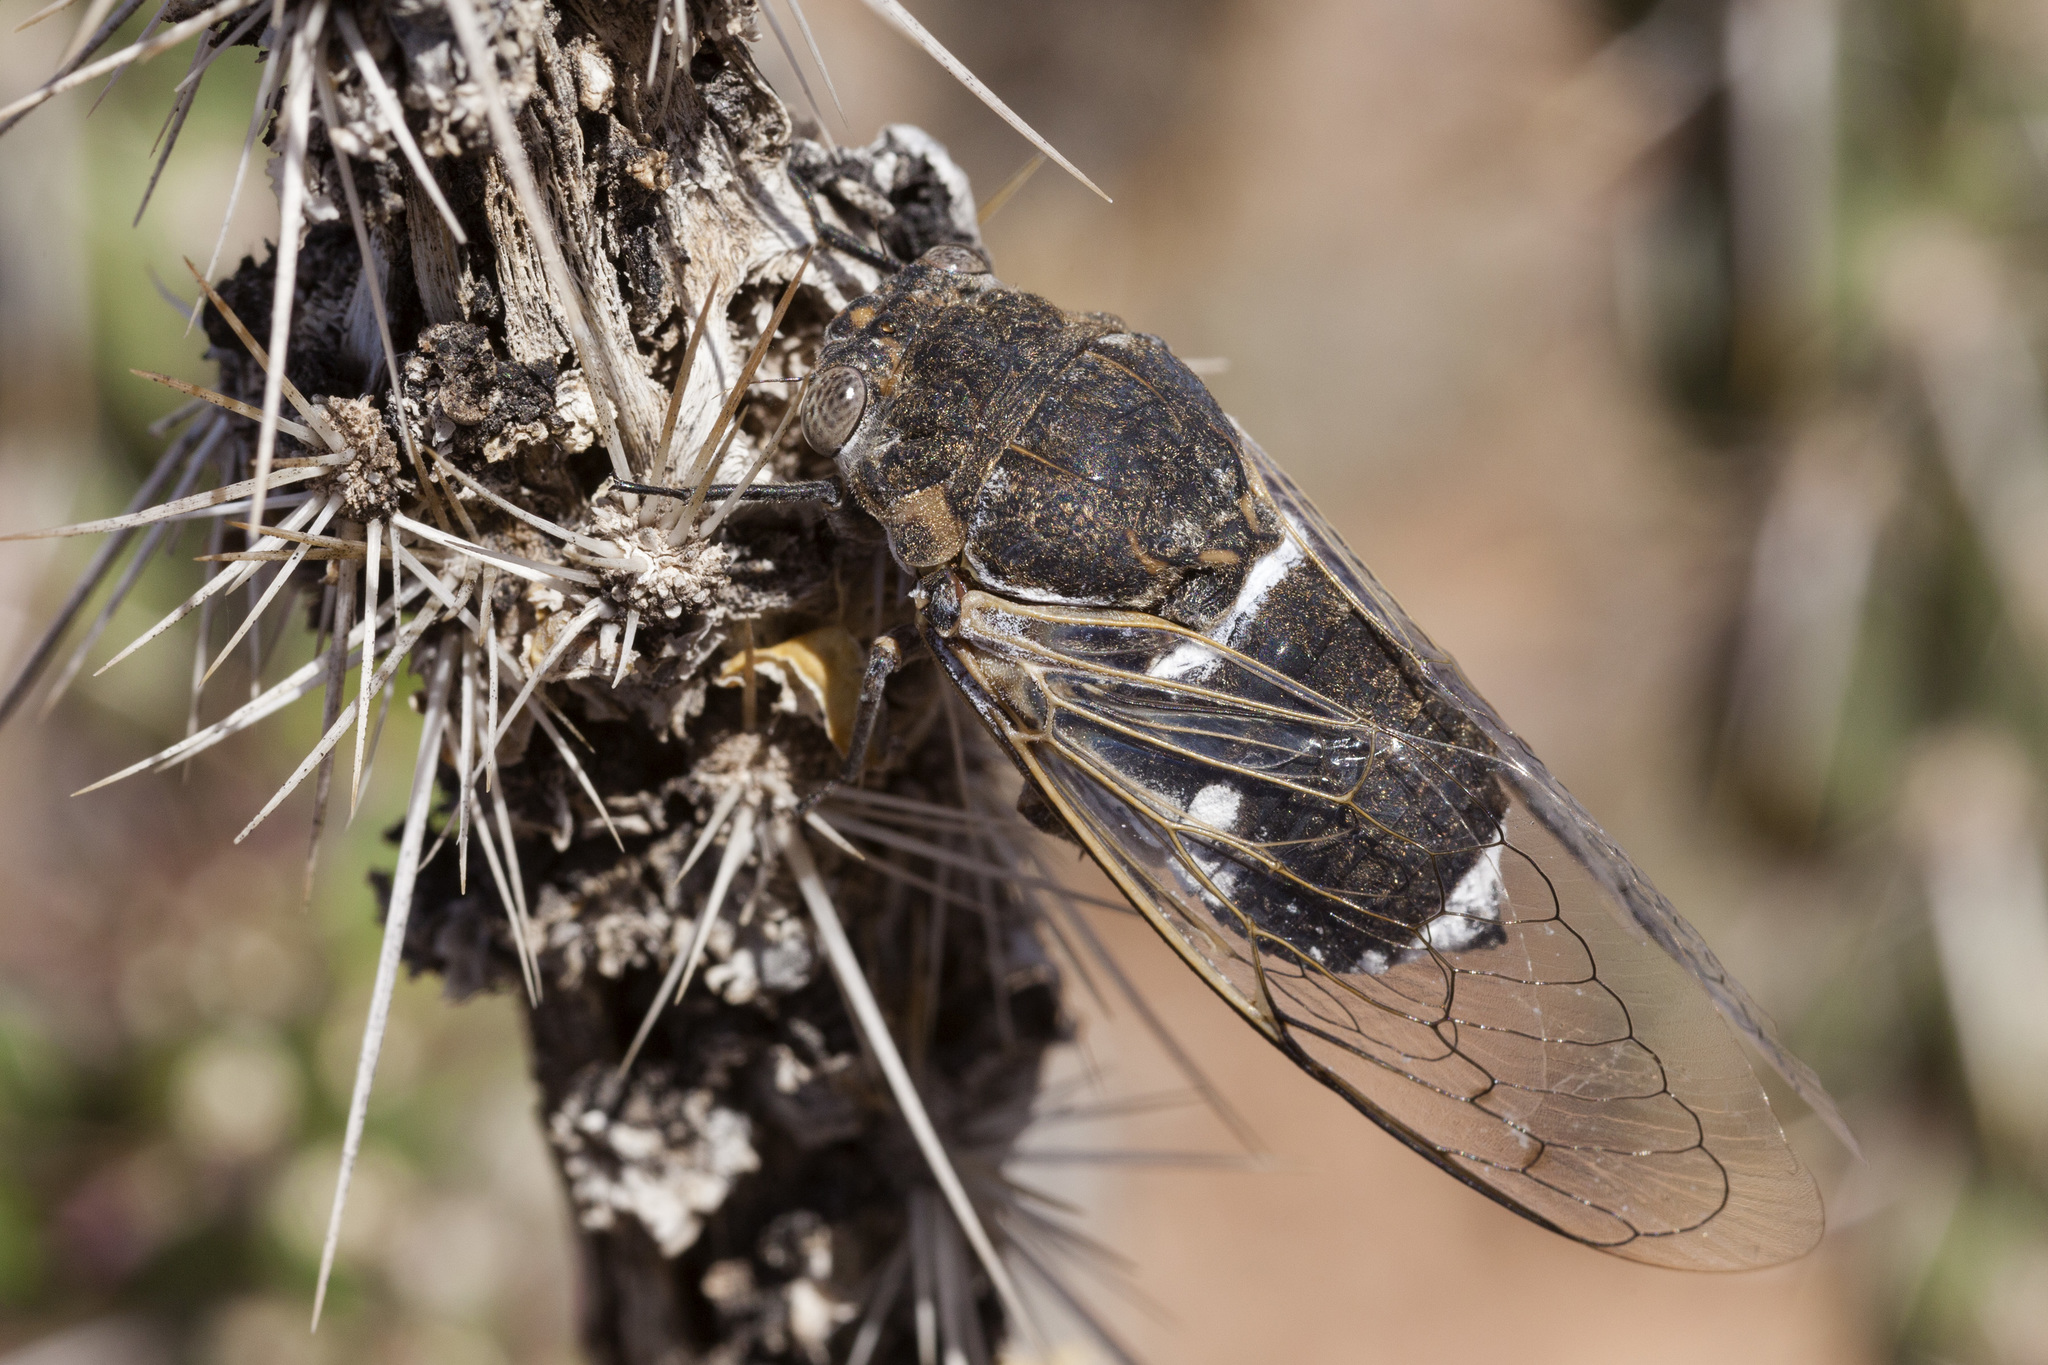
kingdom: Animalia
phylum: Arthropoda
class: Insecta
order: Hemiptera
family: Cicadidae
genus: Cacama
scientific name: Cacama valvata
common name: Cactus dodger
